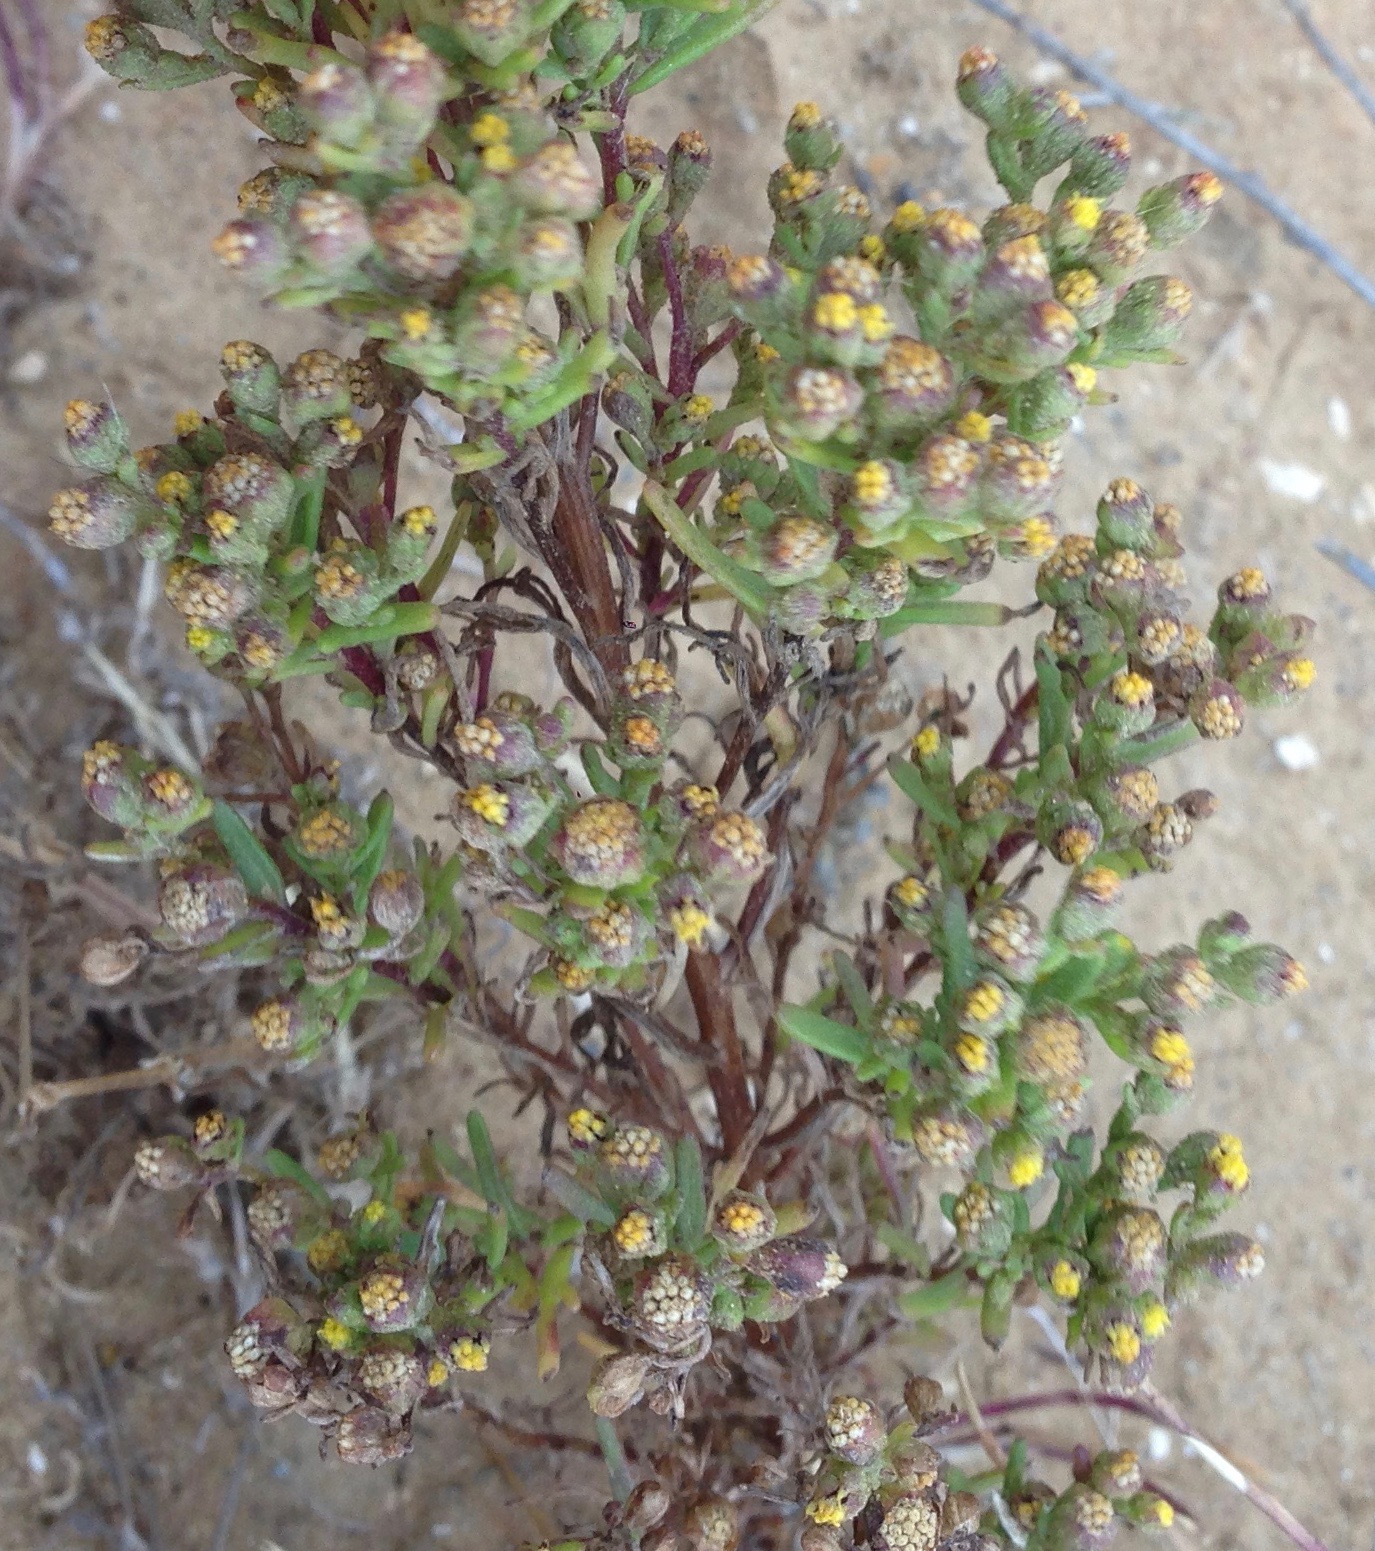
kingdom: Plantae
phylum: Tracheophyta
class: Magnoliopsida
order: Asterales
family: Asteraceae
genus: Amblyopappus
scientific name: Amblyopappus pusillus
